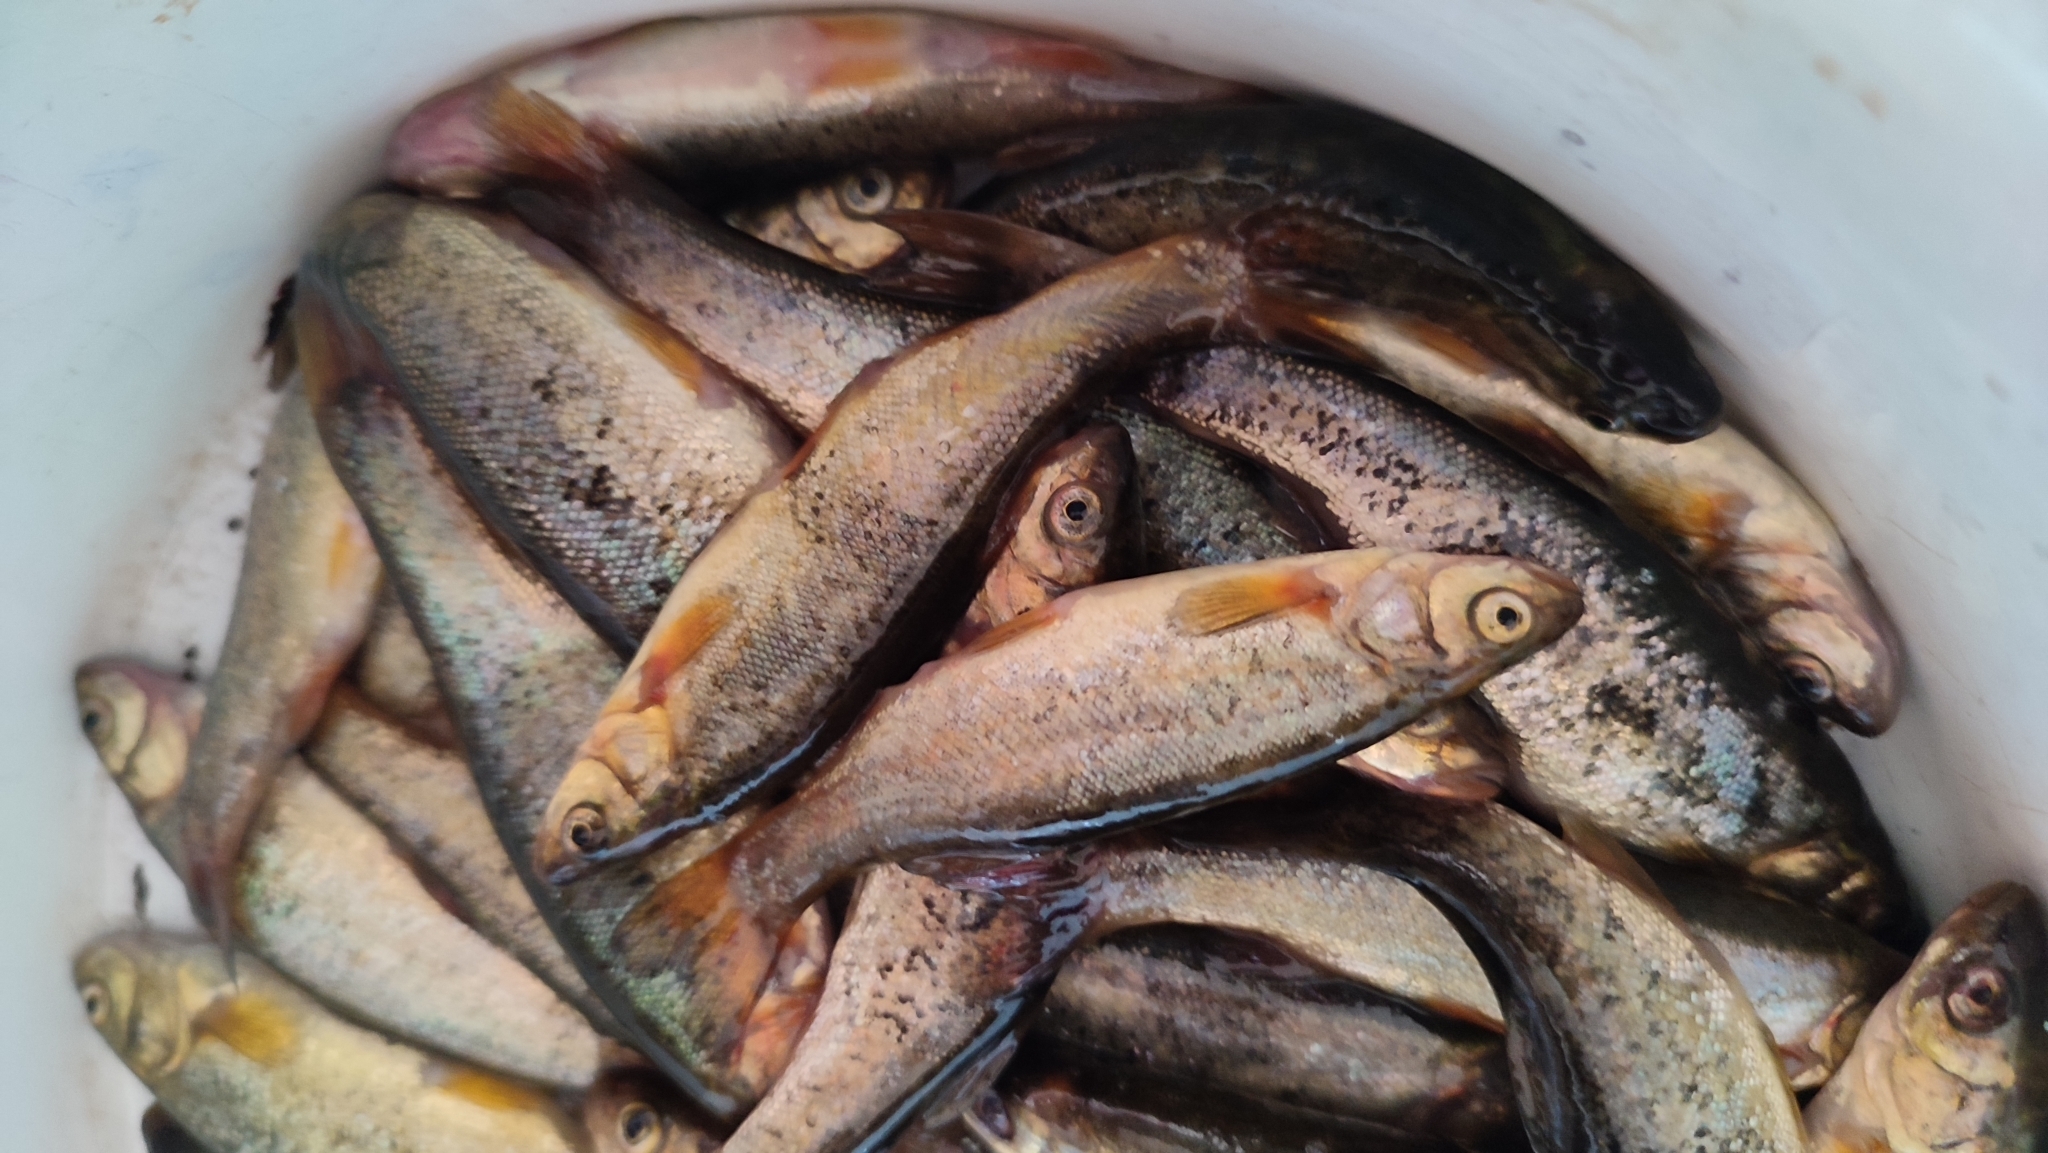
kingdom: Animalia
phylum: Chordata
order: Cypriniformes
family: Cyprinidae
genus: Rhynchocypris
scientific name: Rhynchocypris percnurus
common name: Swamp minnow
